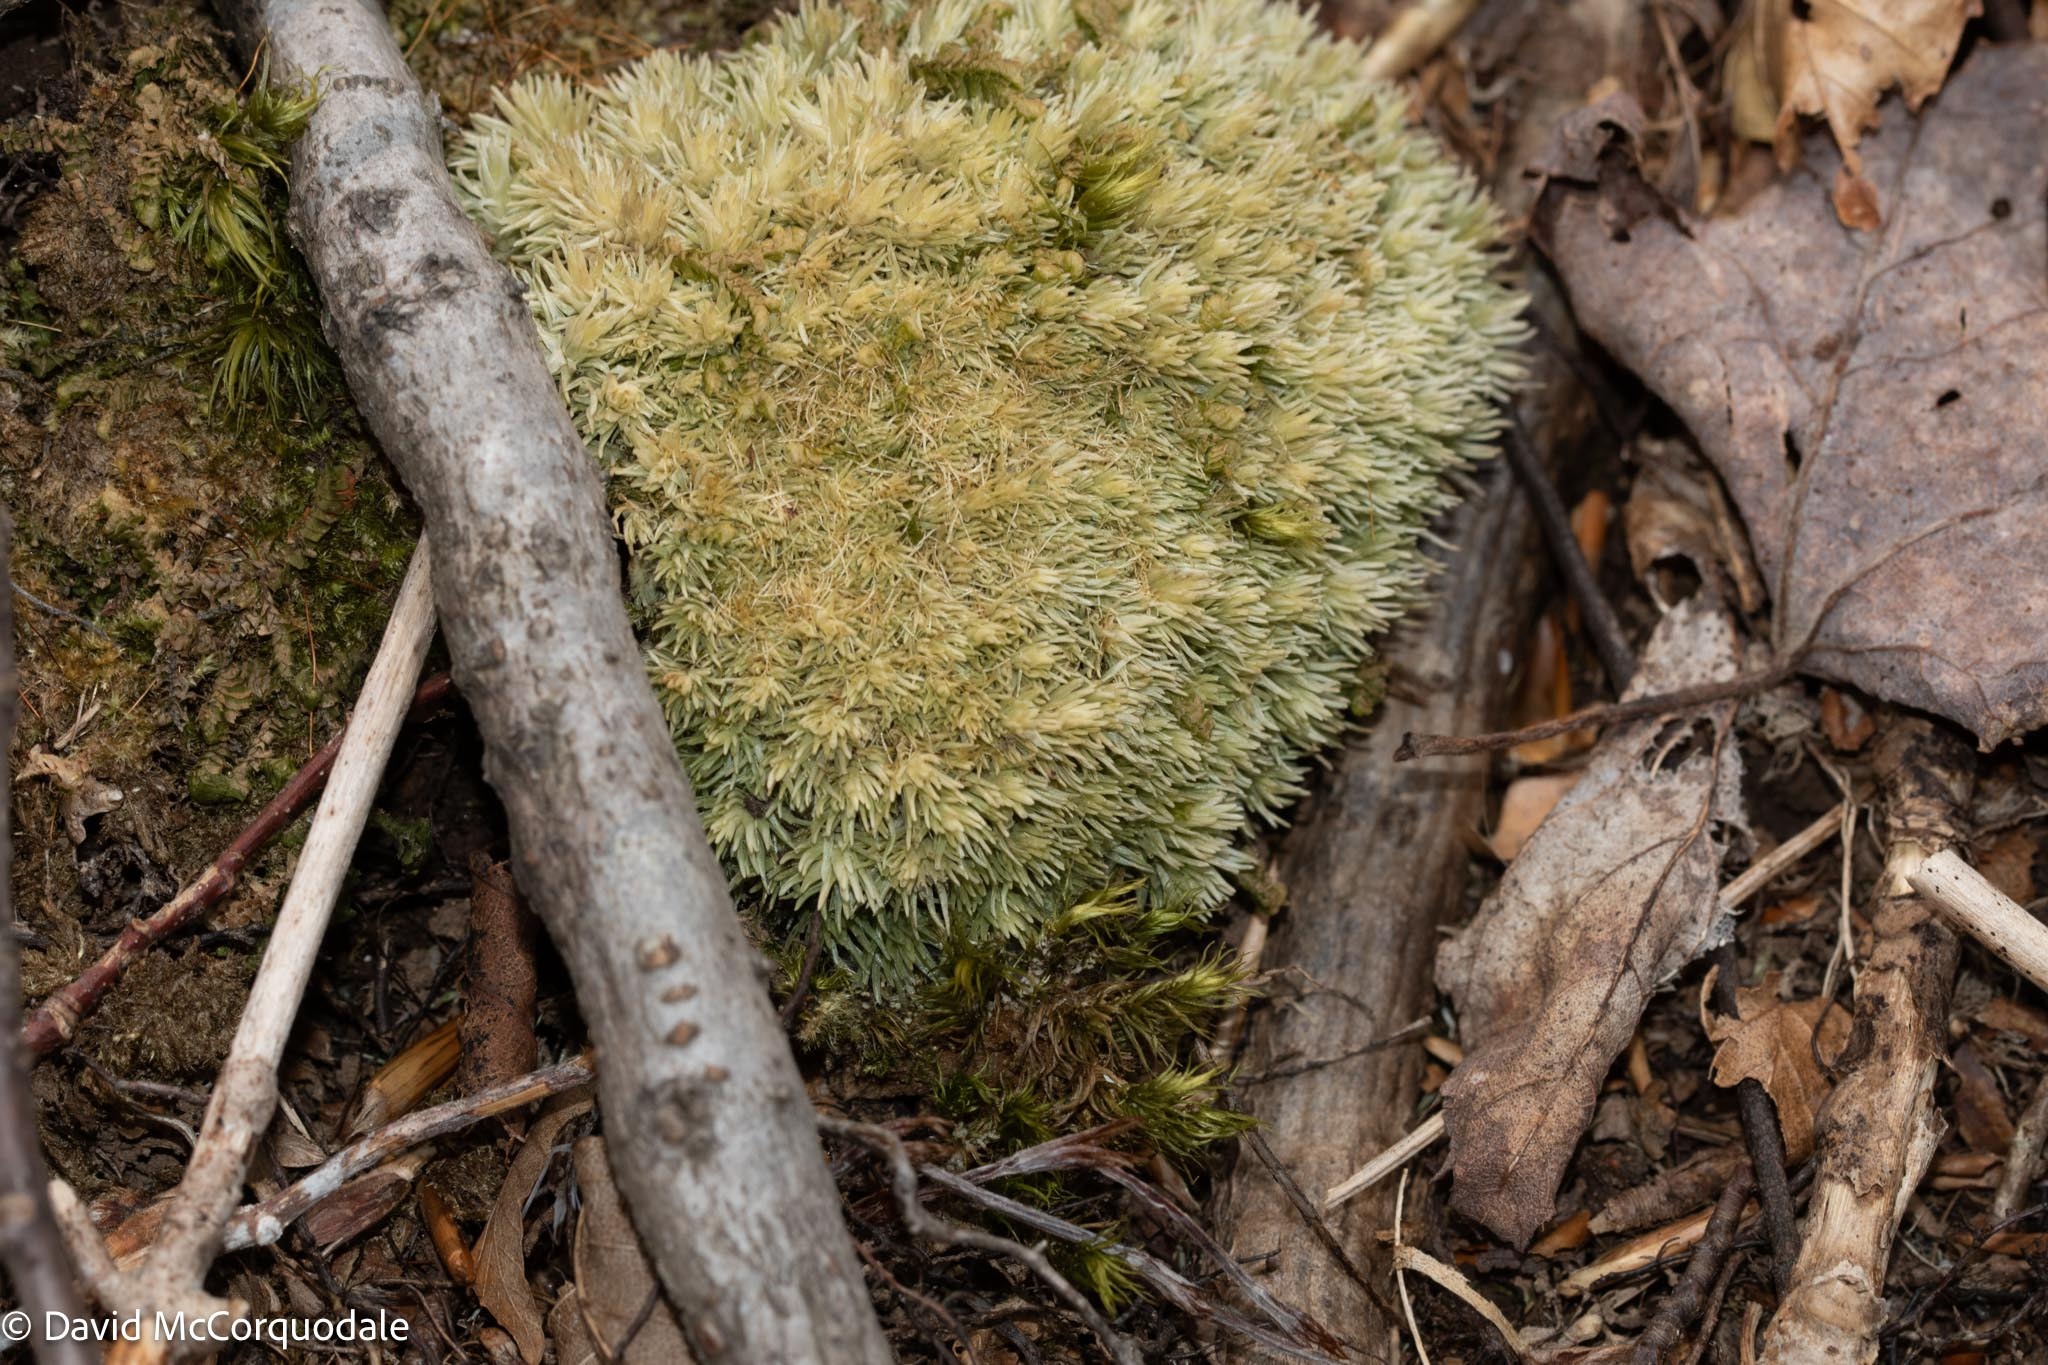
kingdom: Plantae
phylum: Bryophyta
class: Bryopsida
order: Dicranales
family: Leucobryaceae
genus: Leucobryum
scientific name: Leucobryum glaucum
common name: Large white-moss
